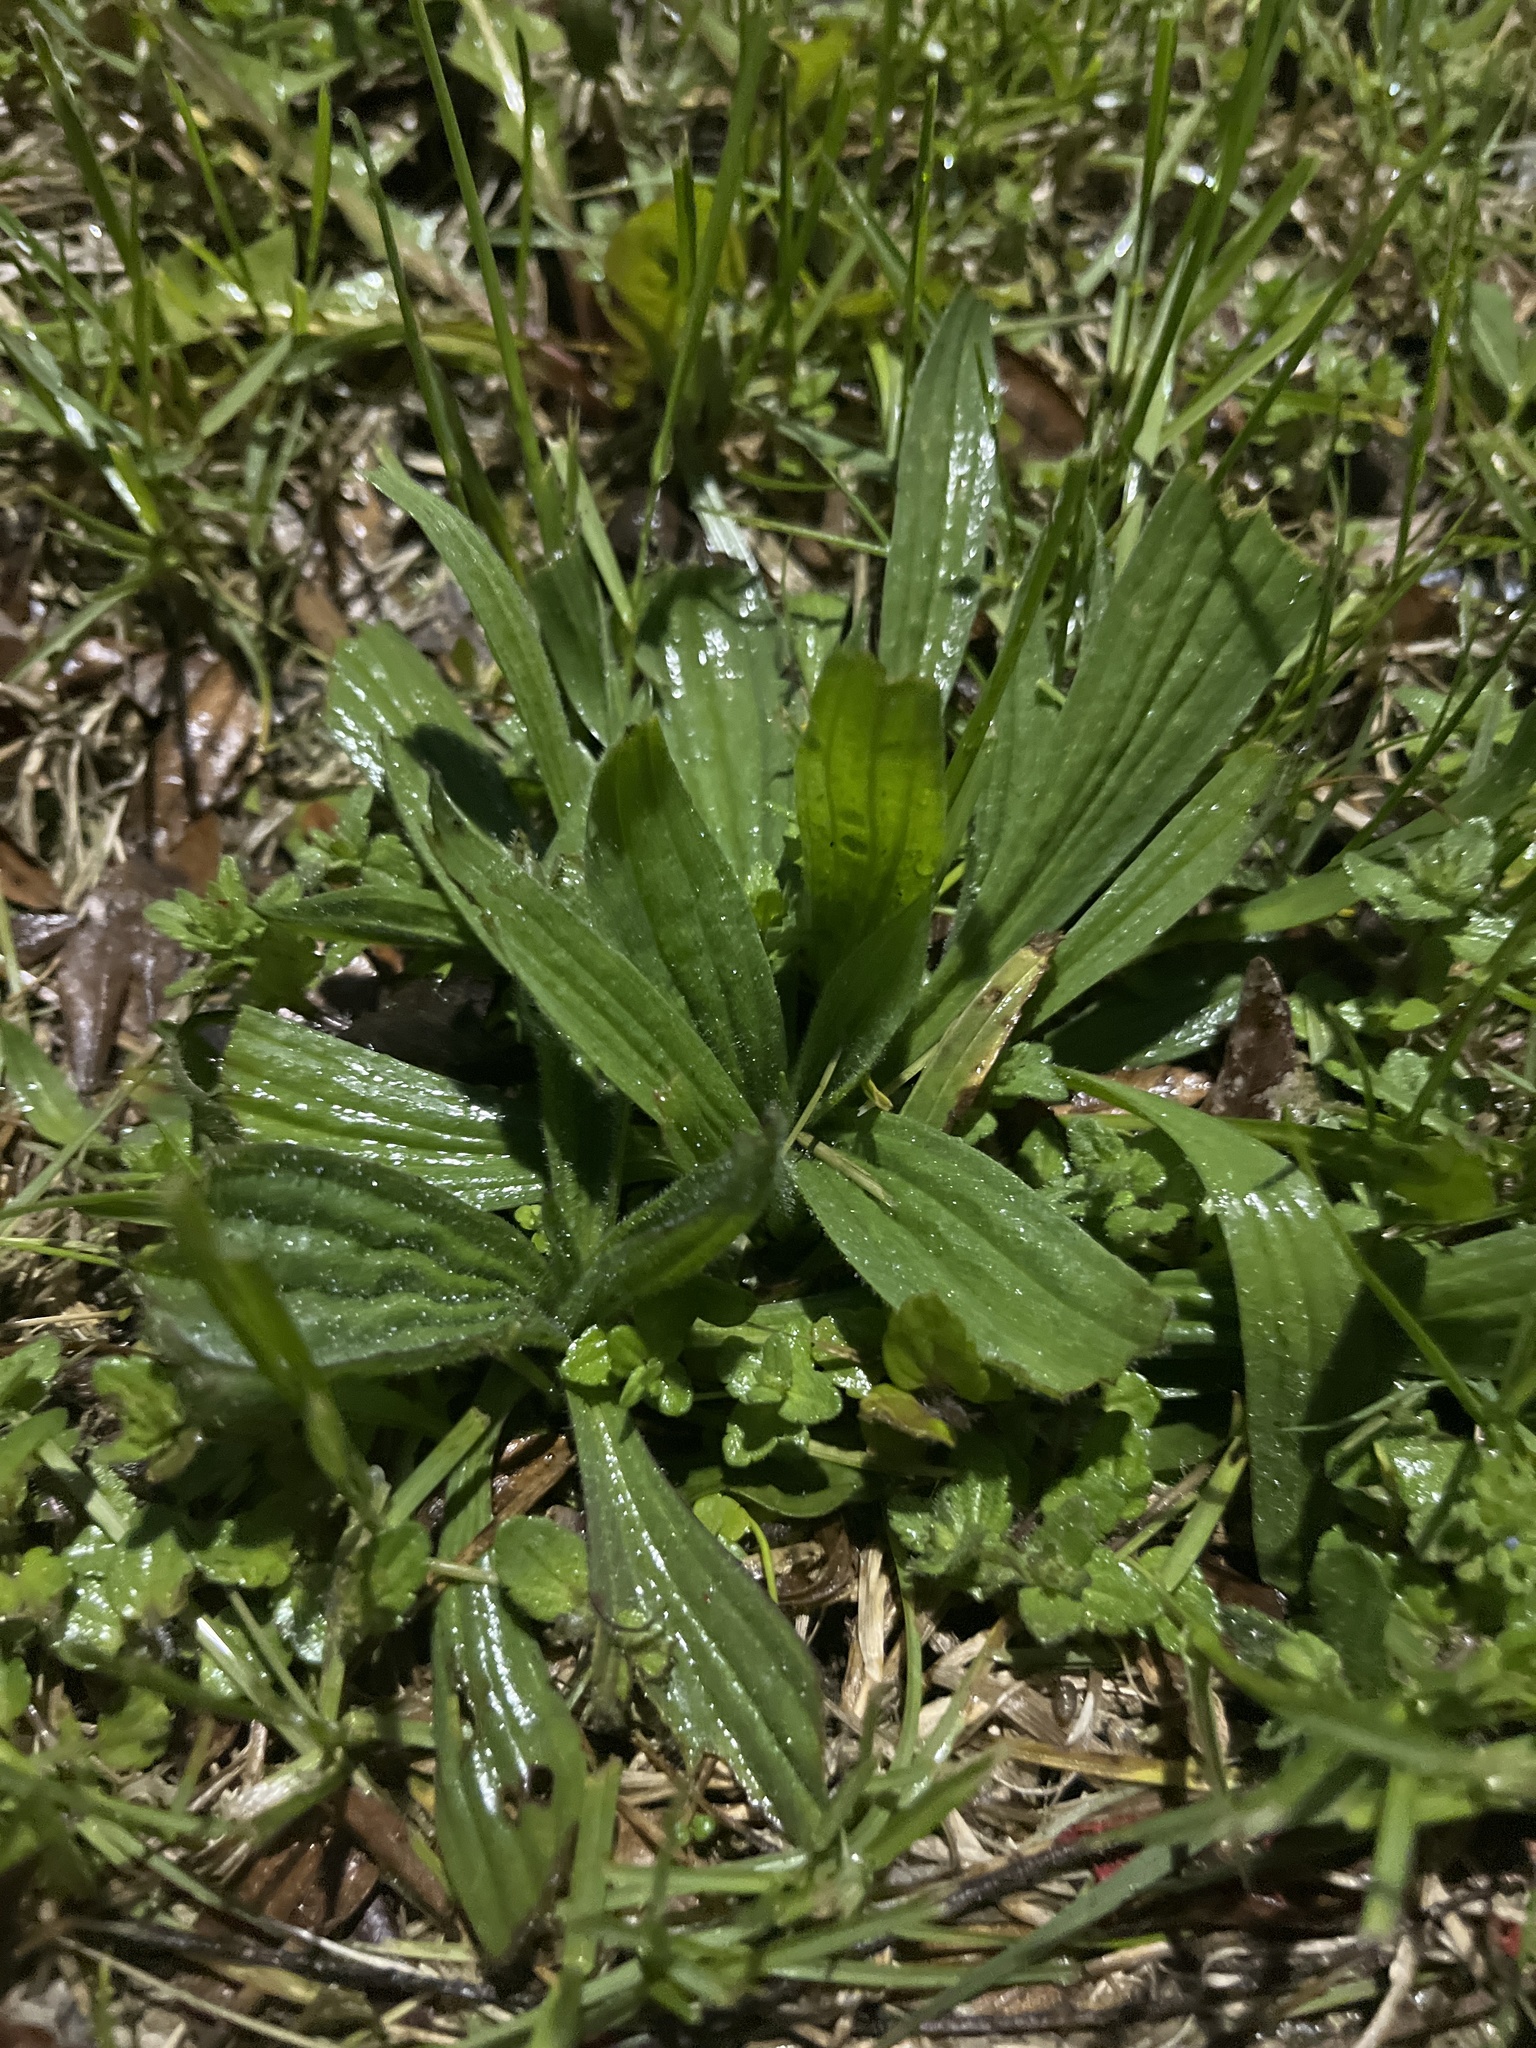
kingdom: Plantae
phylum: Tracheophyta
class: Magnoliopsida
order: Lamiales
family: Plantaginaceae
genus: Plantago
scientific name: Plantago lanceolata
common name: Ribwort plantain
